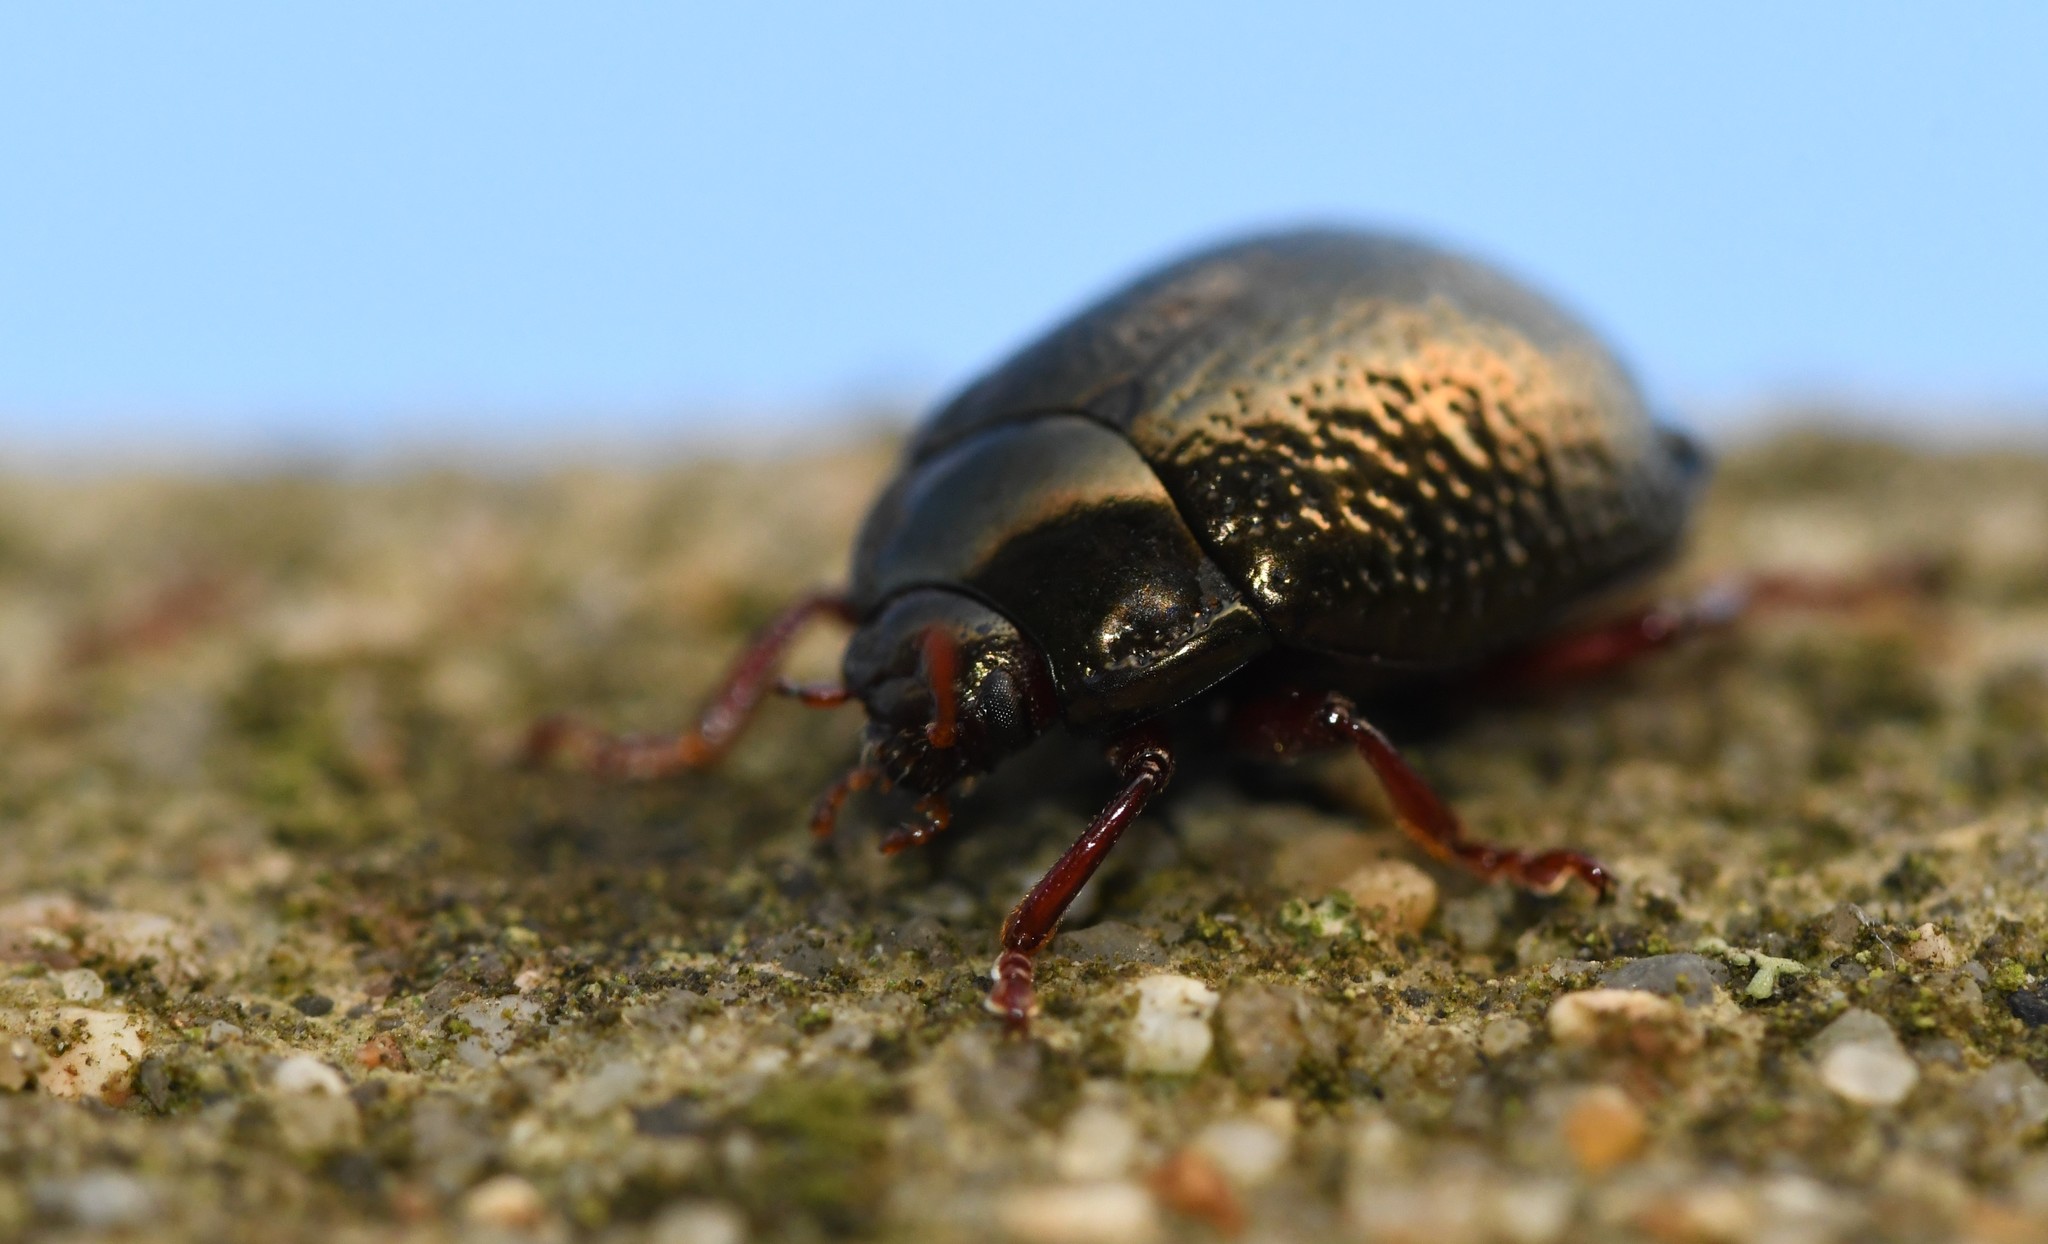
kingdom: Animalia
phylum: Arthropoda
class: Insecta
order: Coleoptera
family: Chrysomelidae
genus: Chrysolina
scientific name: Chrysolina bankii
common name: Leaf beetle
